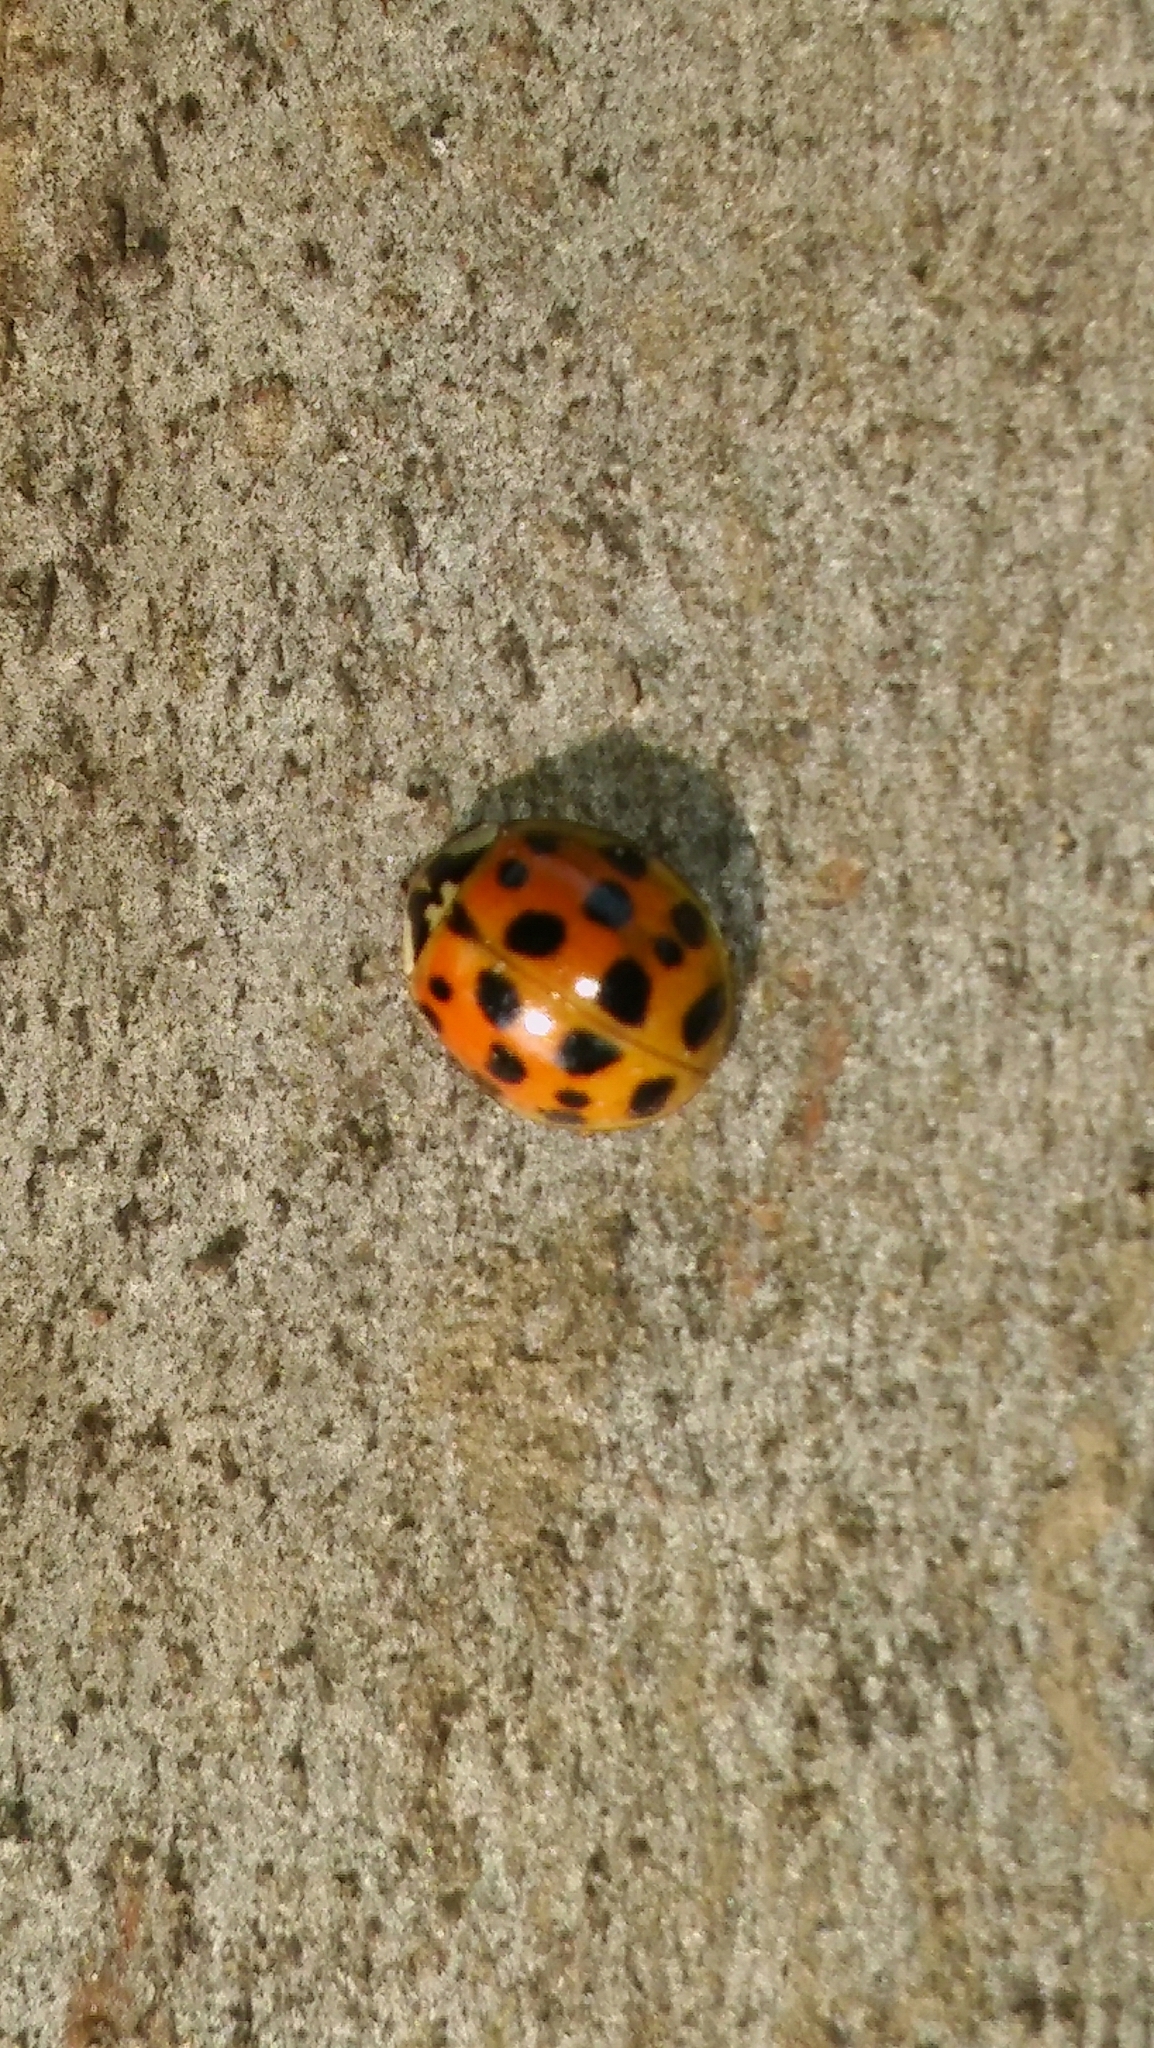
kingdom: Animalia
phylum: Arthropoda
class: Insecta
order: Coleoptera
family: Coccinellidae
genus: Harmonia
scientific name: Harmonia axyridis
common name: Harlequin ladybird
